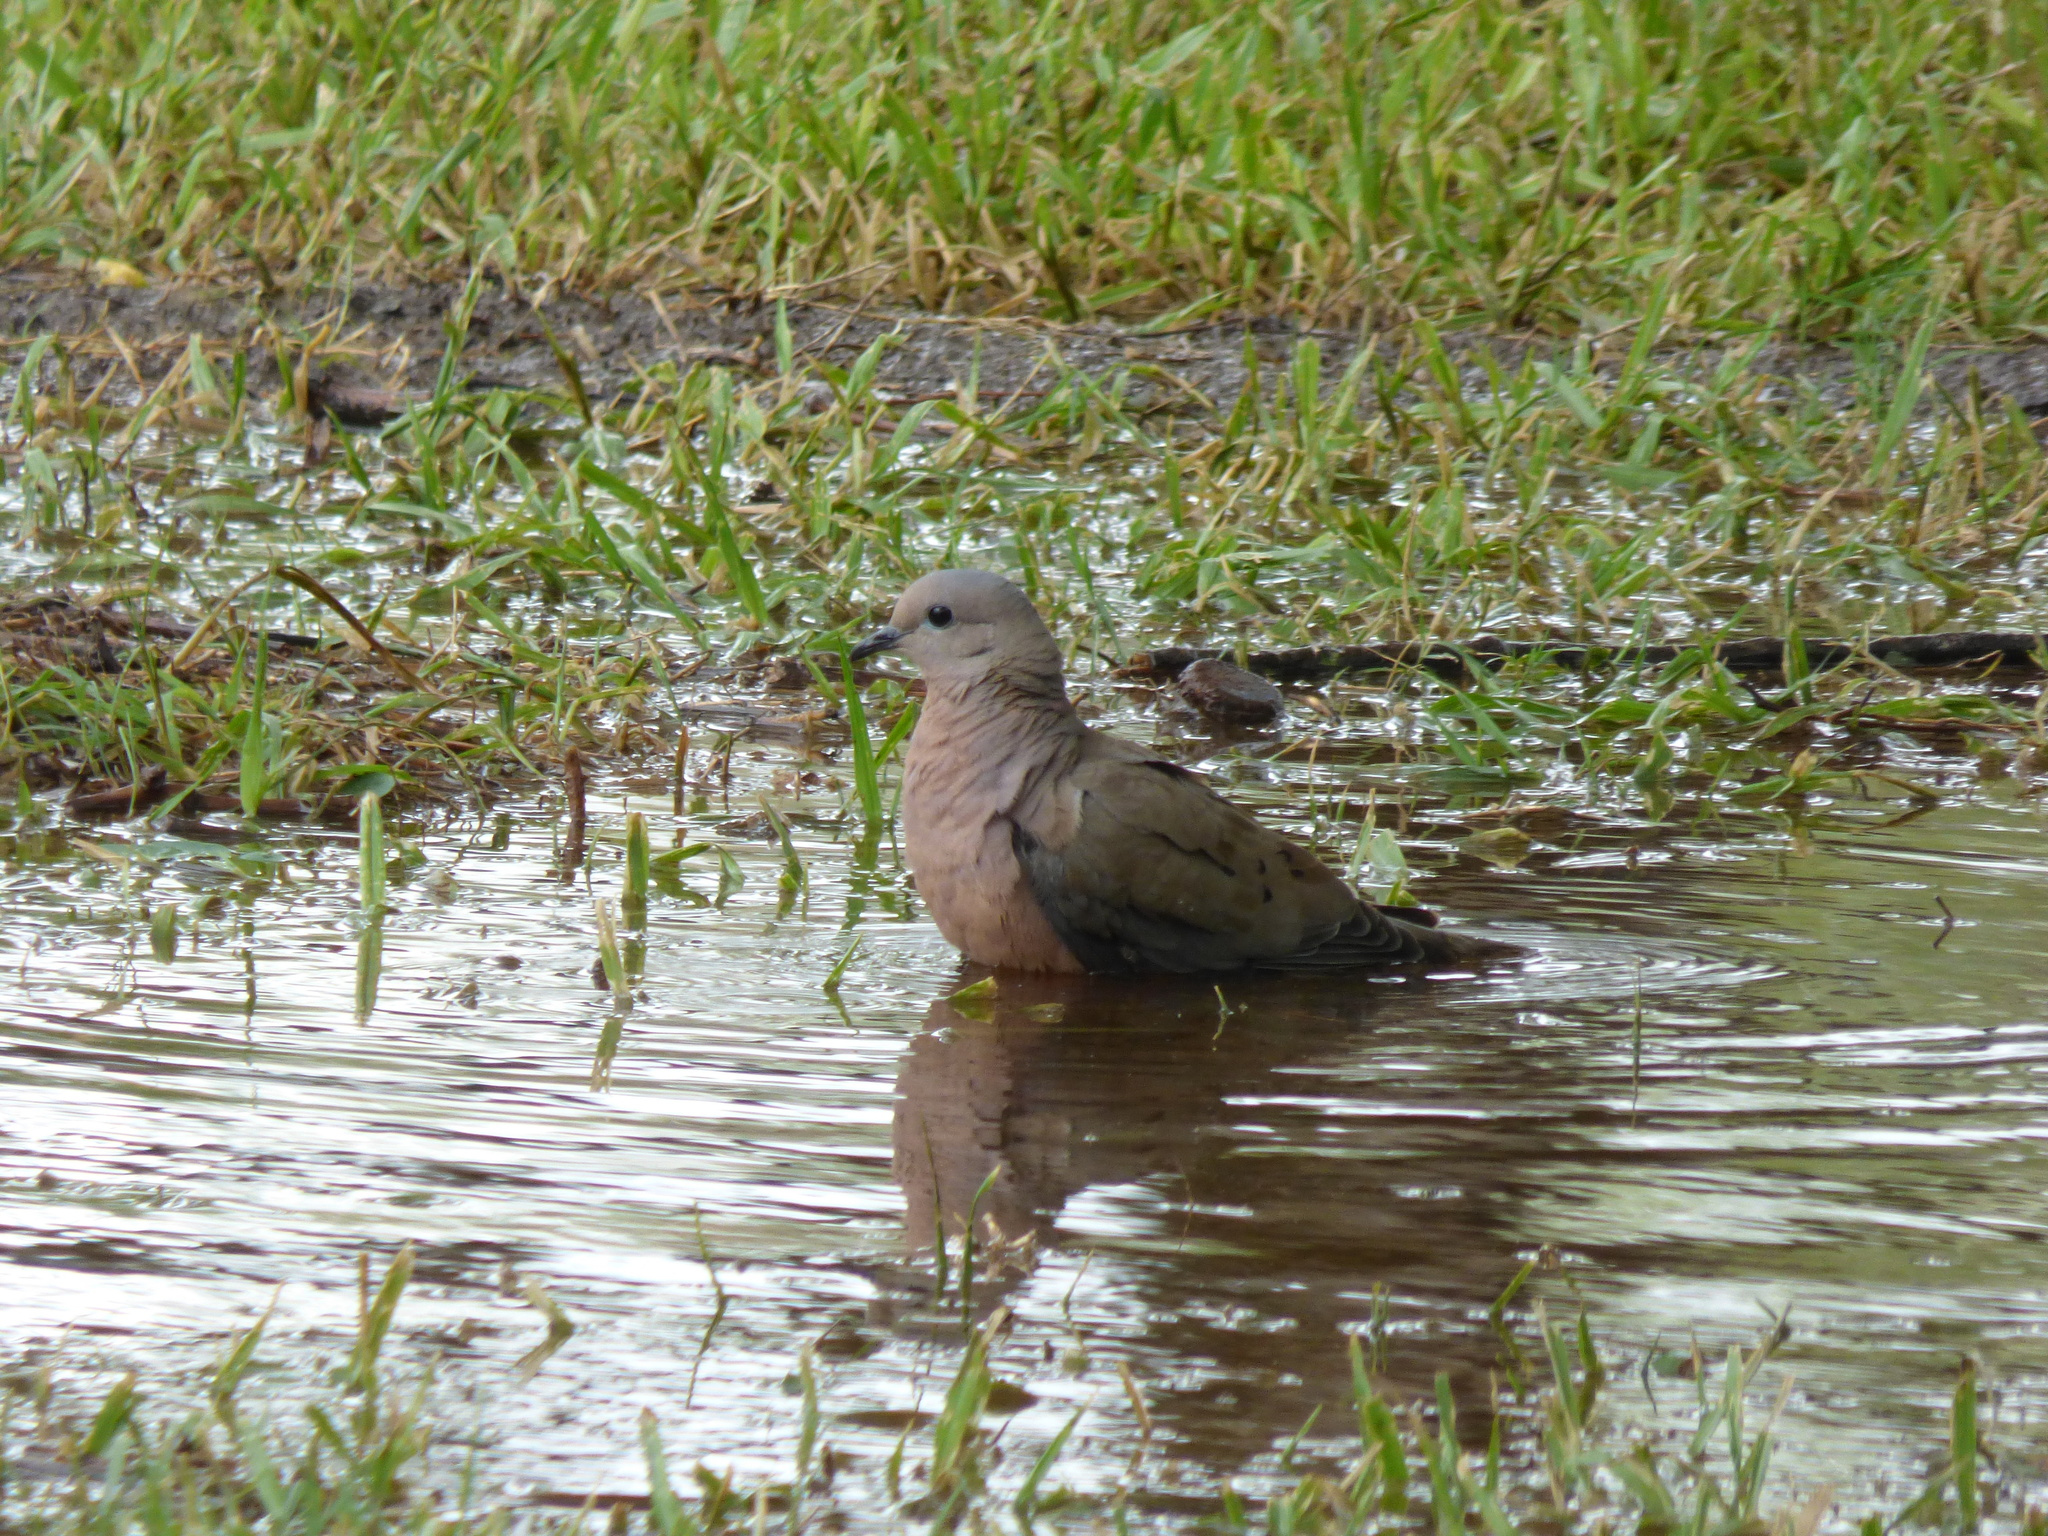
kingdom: Animalia
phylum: Chordata
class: Aves
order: Columbiformes
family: Columbidae
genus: Zenaida
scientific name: Zenaida auriculata
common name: Eared dove
